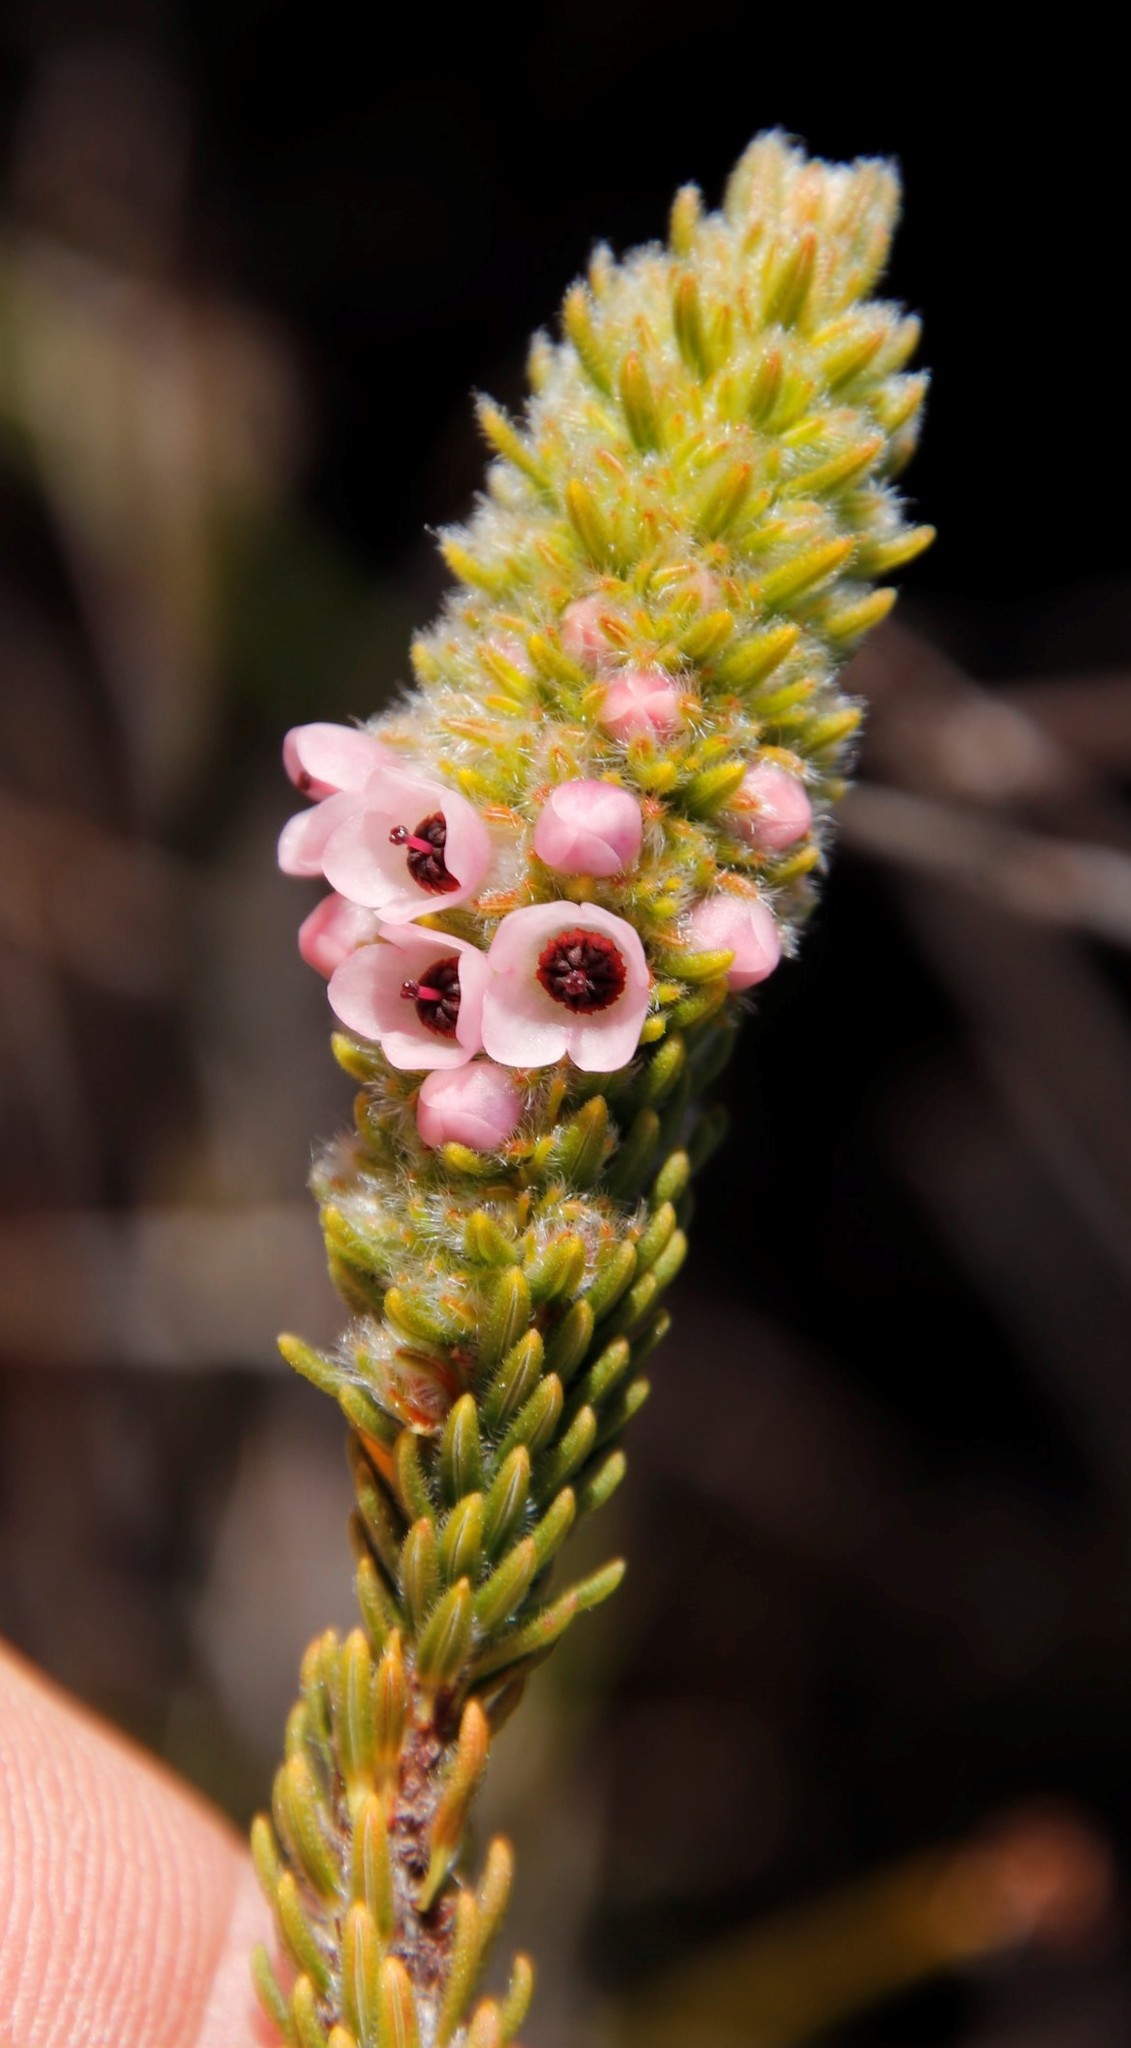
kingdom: Plantae
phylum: Tracheophyta
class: Magnoliopsida
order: Ericales
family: Ericaceae
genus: Erica
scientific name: Erica pyxidiflora
